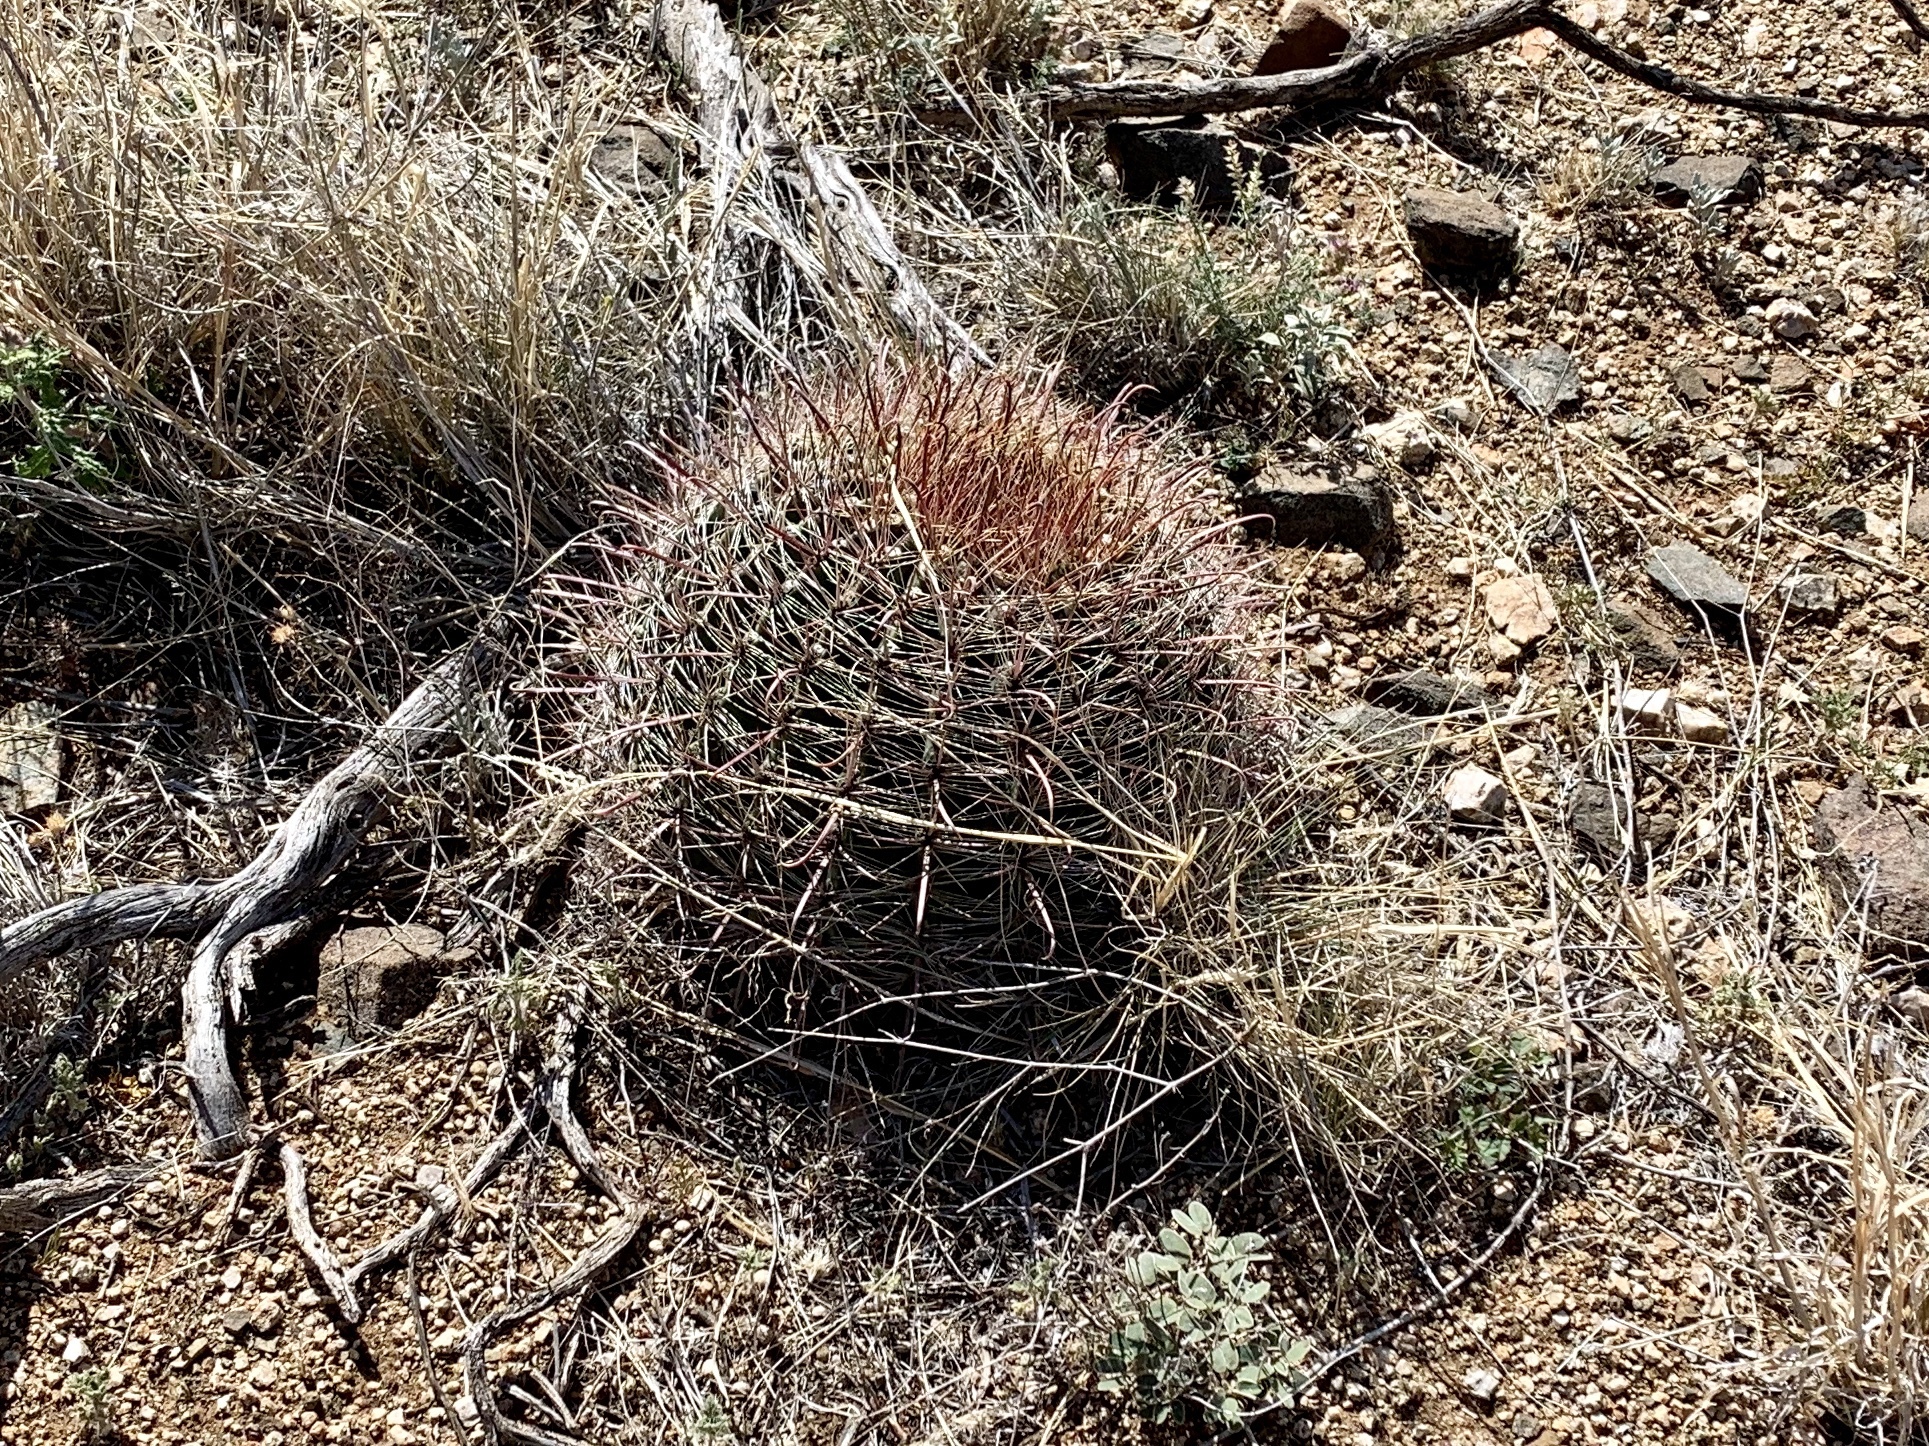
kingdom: Plantae
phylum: Tracheophyta
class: Magnoliopsida
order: Caryophyllales
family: Cactaceae
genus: Ferocactus
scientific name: Ferocactus wislizeni
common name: Candy barrel cactus
